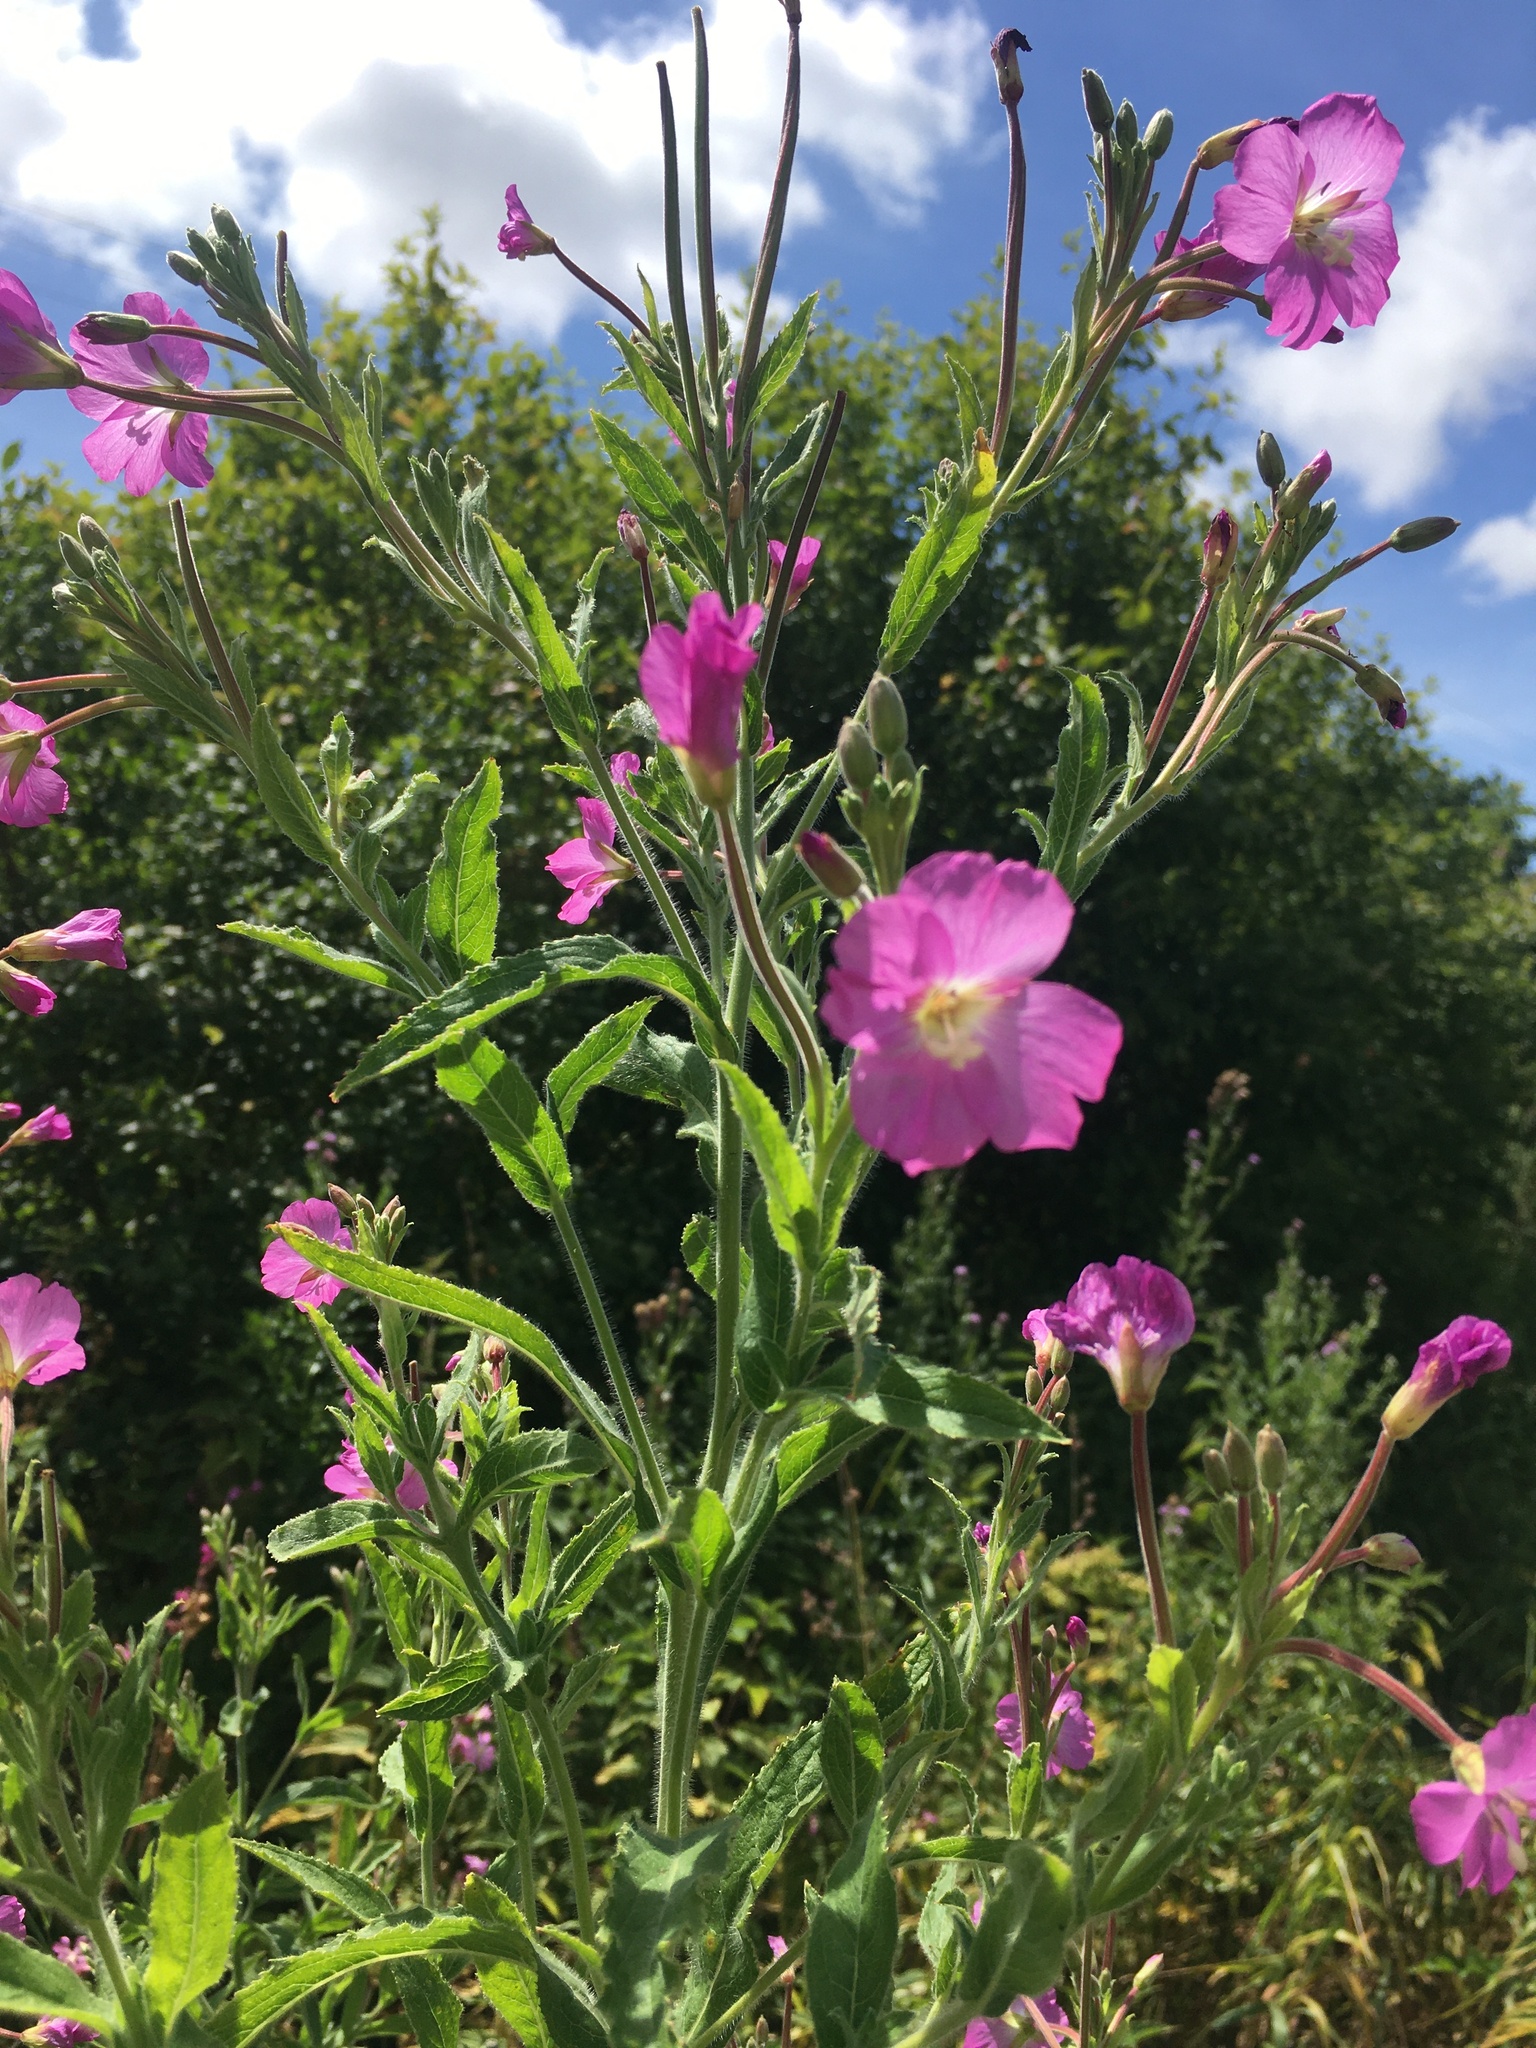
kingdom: Plantae
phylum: Tracheophyta
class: Magnoliopsida
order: Myrtales
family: Onagraceae
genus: Epilobium
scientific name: Epilobium hirsutum
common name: Great willowherb
